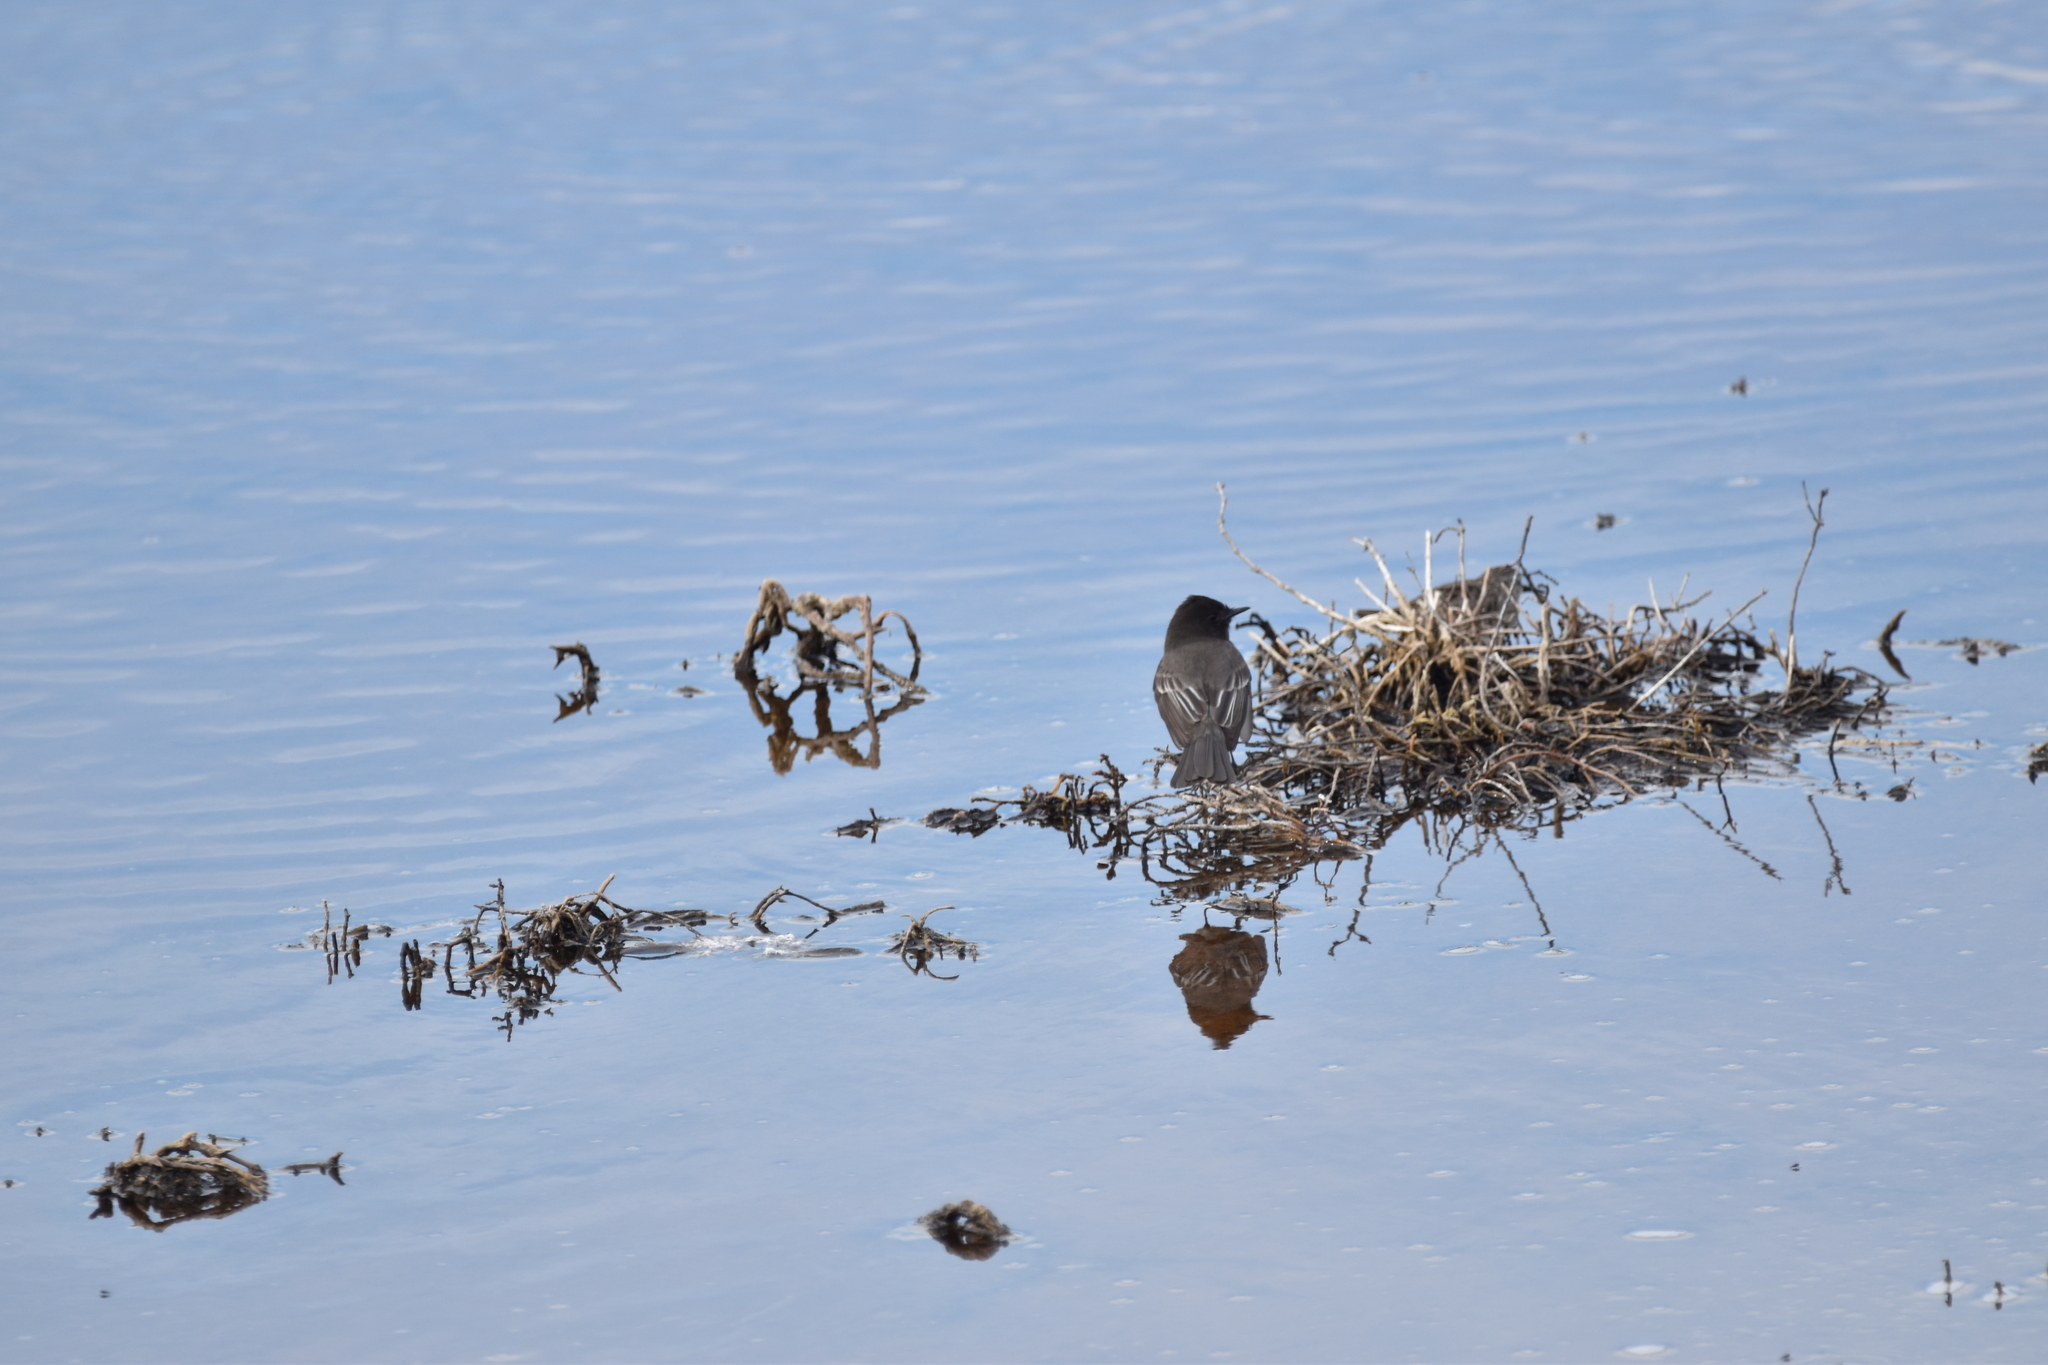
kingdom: Animalia
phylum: Chordata
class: Aves
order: Passeriformes
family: Tyrannidae
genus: Sayornis
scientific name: Sayornis nigricans
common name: Black phoebe
